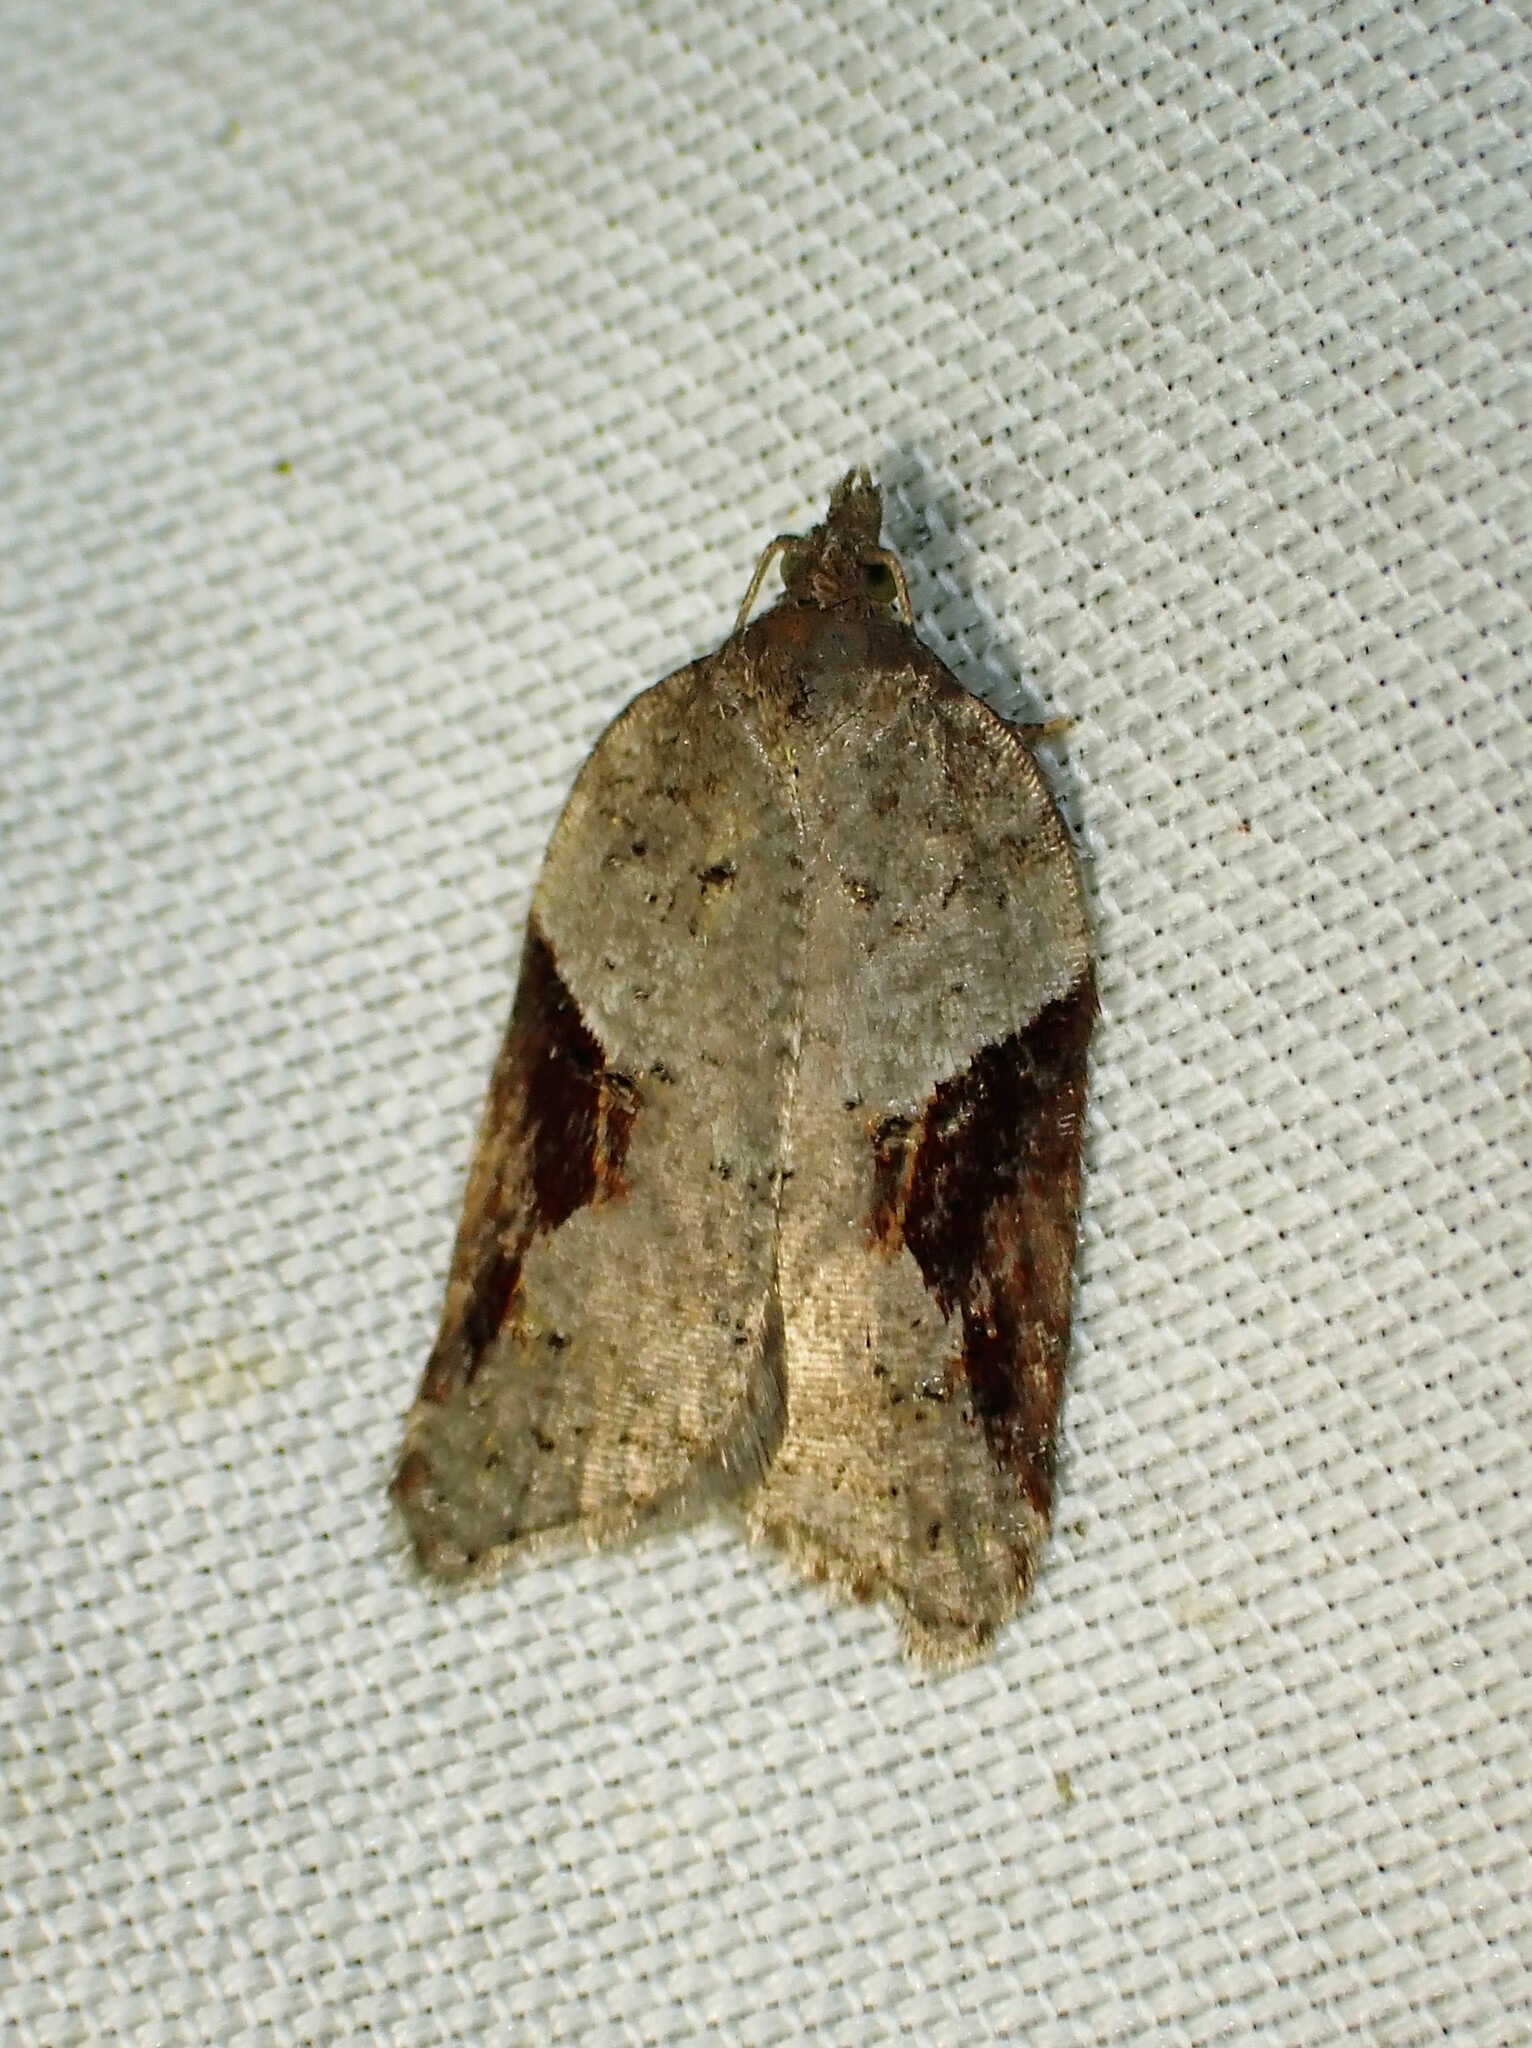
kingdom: Animalia
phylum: Arthropoda
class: Insecta
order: Lepidoptera
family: Tortricidae
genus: Acleris
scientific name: Acleris macdunnoughi
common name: Macdunnough's acleris
